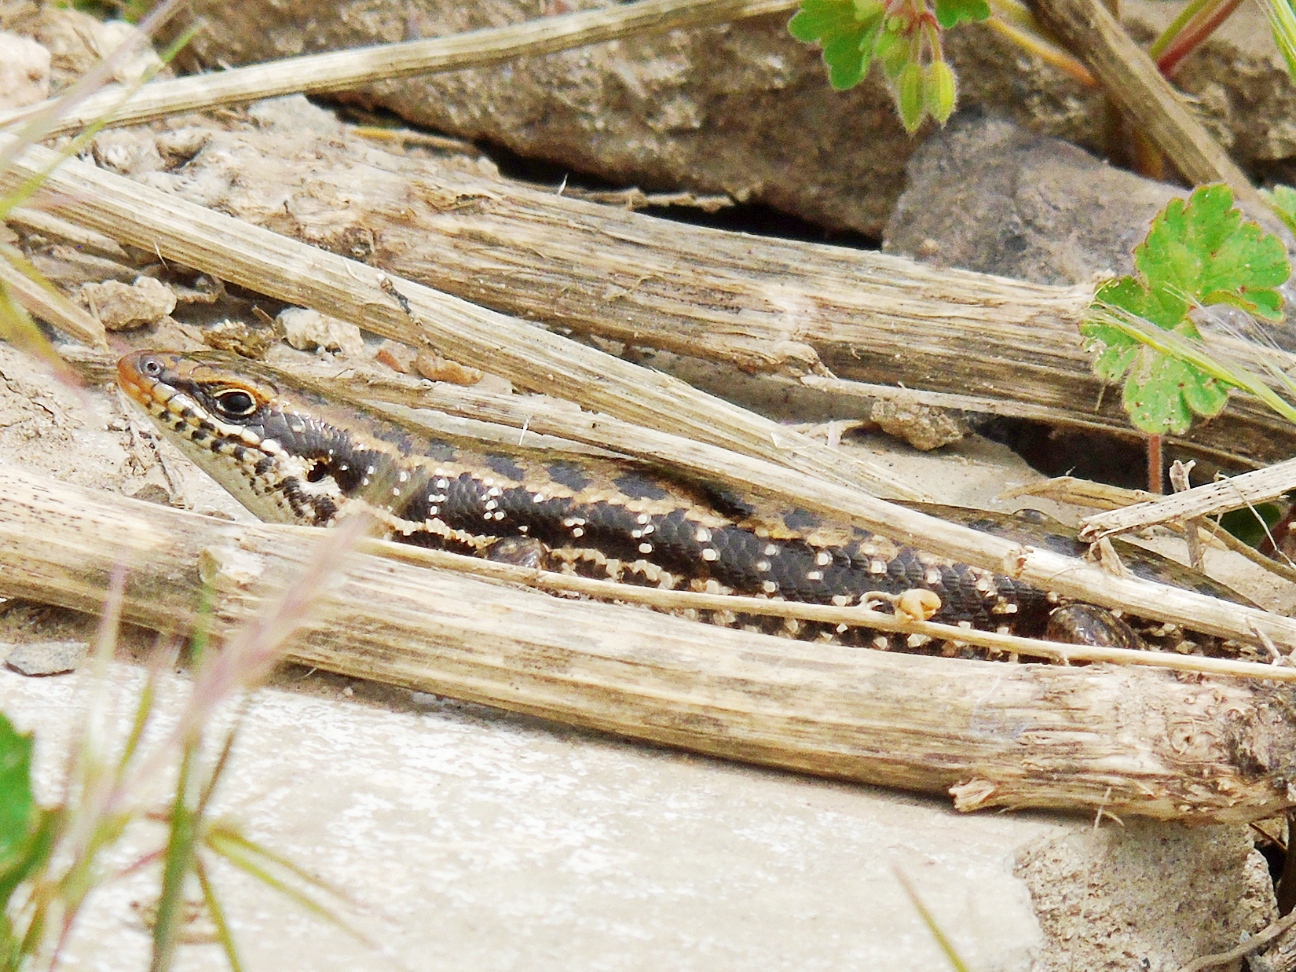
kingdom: Animalia
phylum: Chordata
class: Squamata
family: Scincidae
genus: Heremites
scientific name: Heremites auratus
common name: Golden grass mabuya
